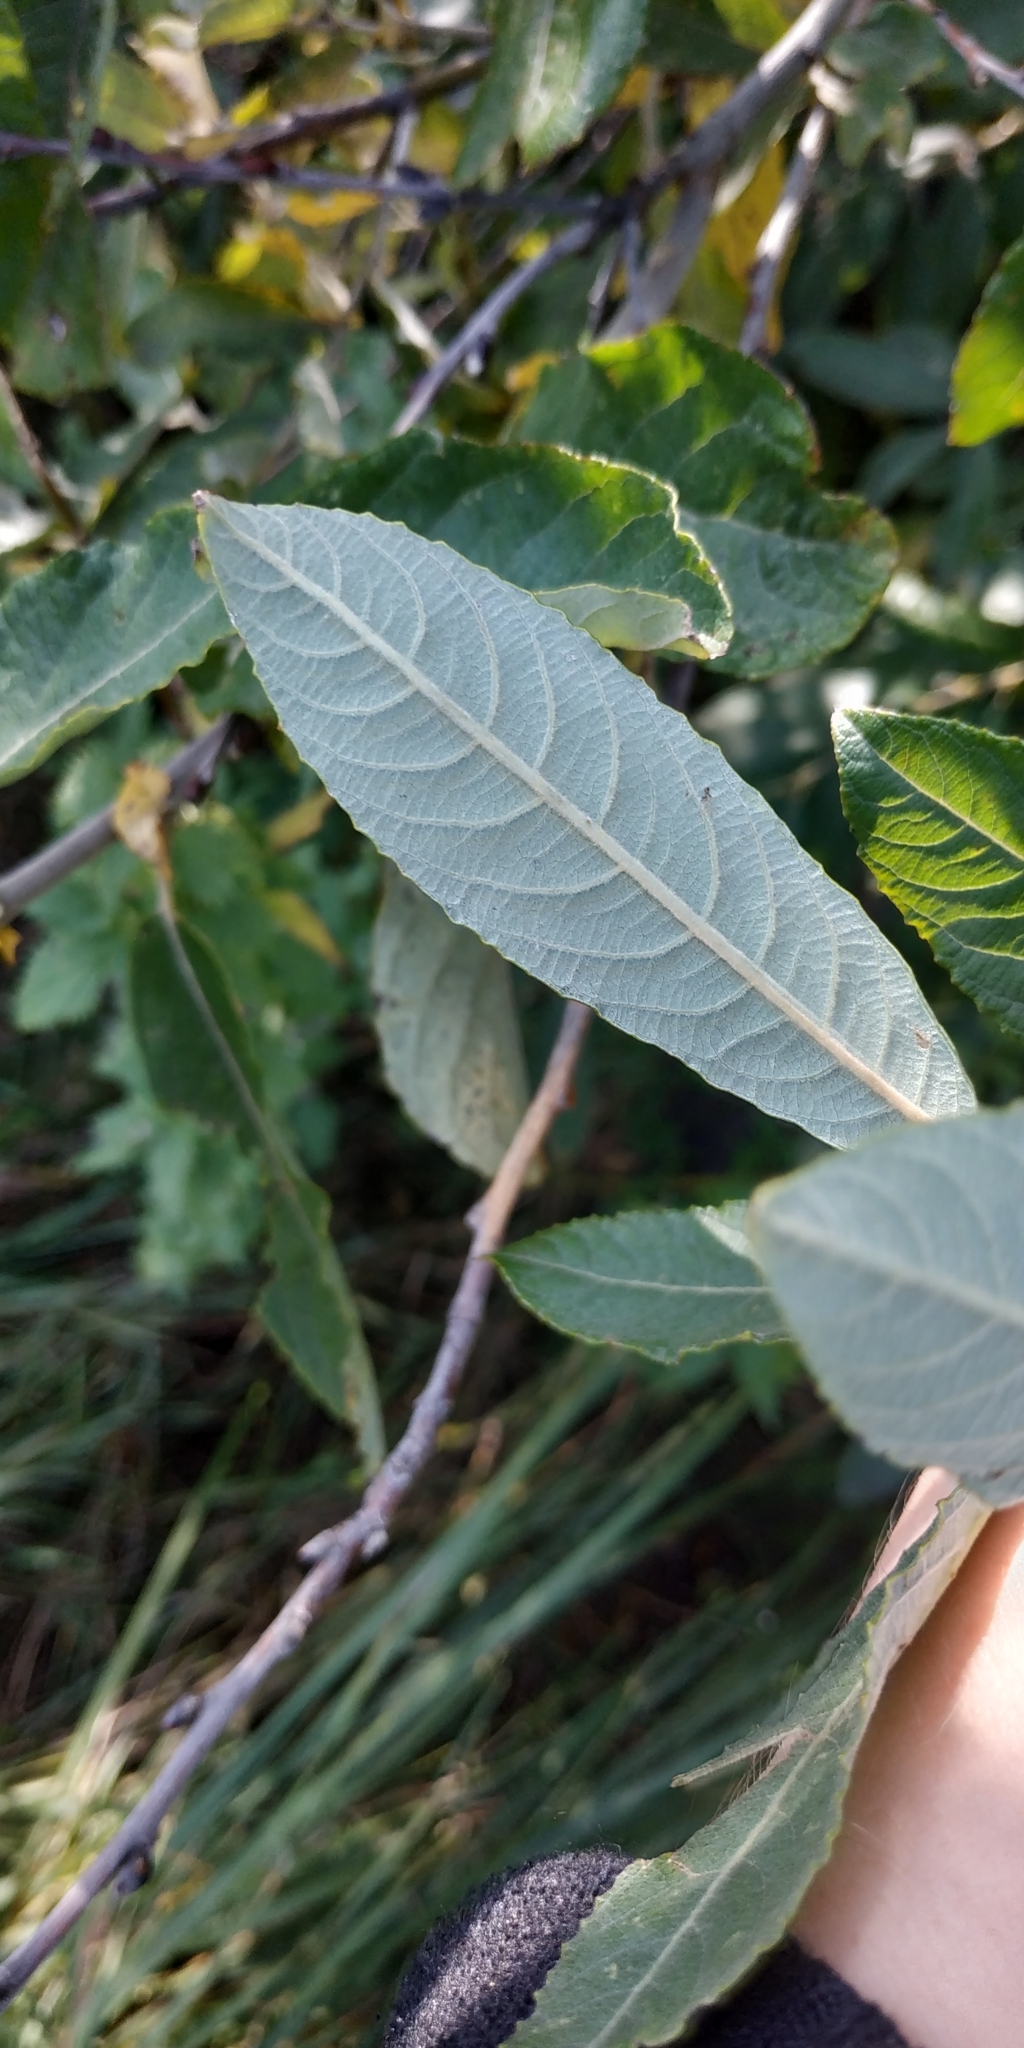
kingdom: Plantae
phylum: Tracheophyta
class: Magnoliopsida
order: Malpighiales
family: Salicaceae
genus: Salix
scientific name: Salix cinerea
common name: Common sallow
